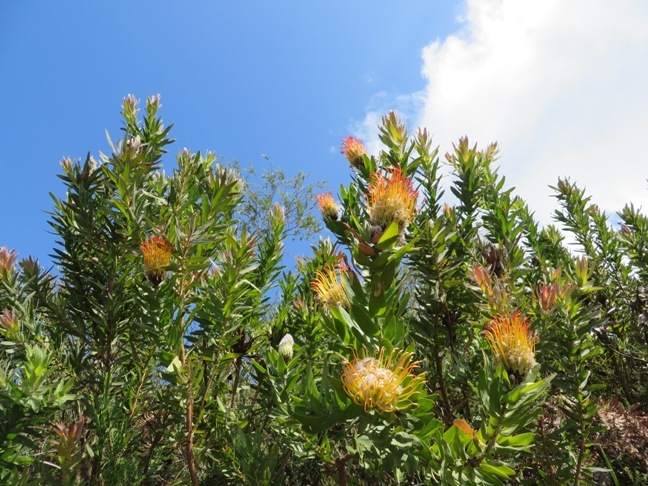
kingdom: Plantae
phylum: Tracheophyta
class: Magnoliopsida
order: Proteales
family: Proteaceae
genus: Leucospermum
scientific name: Leucospermum gueinzii
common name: Kloof fountain pincushion
